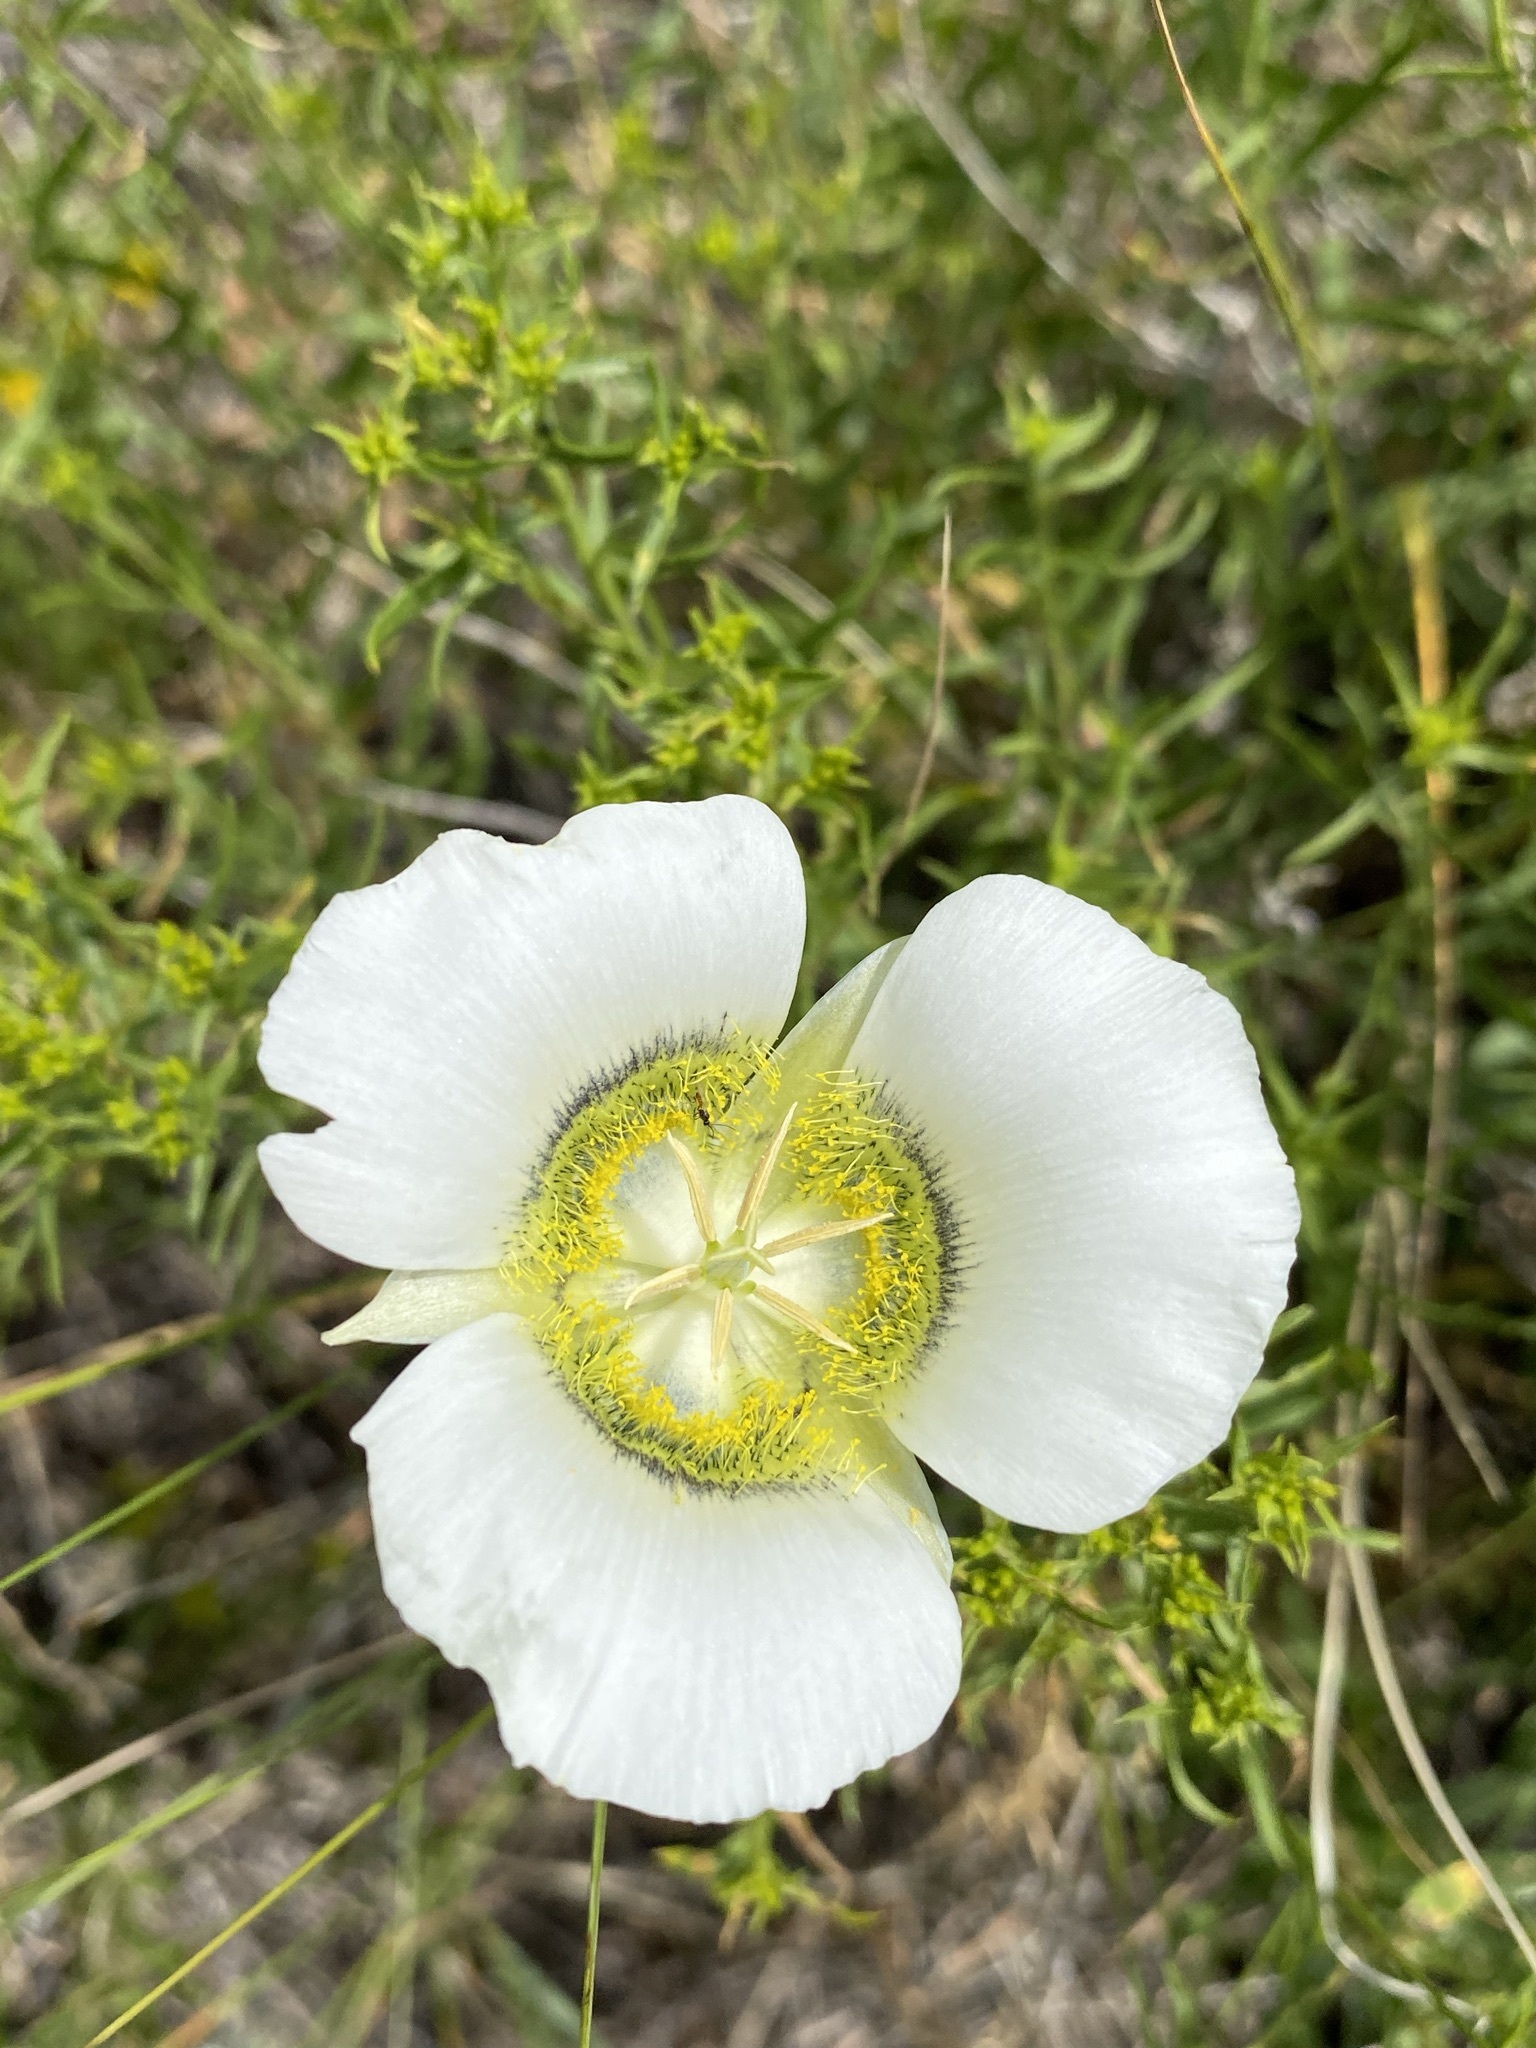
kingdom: Plantae
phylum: Tracheophyta
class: Liliopsida
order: Liliales
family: Liliaceae
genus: Calochortus
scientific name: Calochortus gunnisonii
